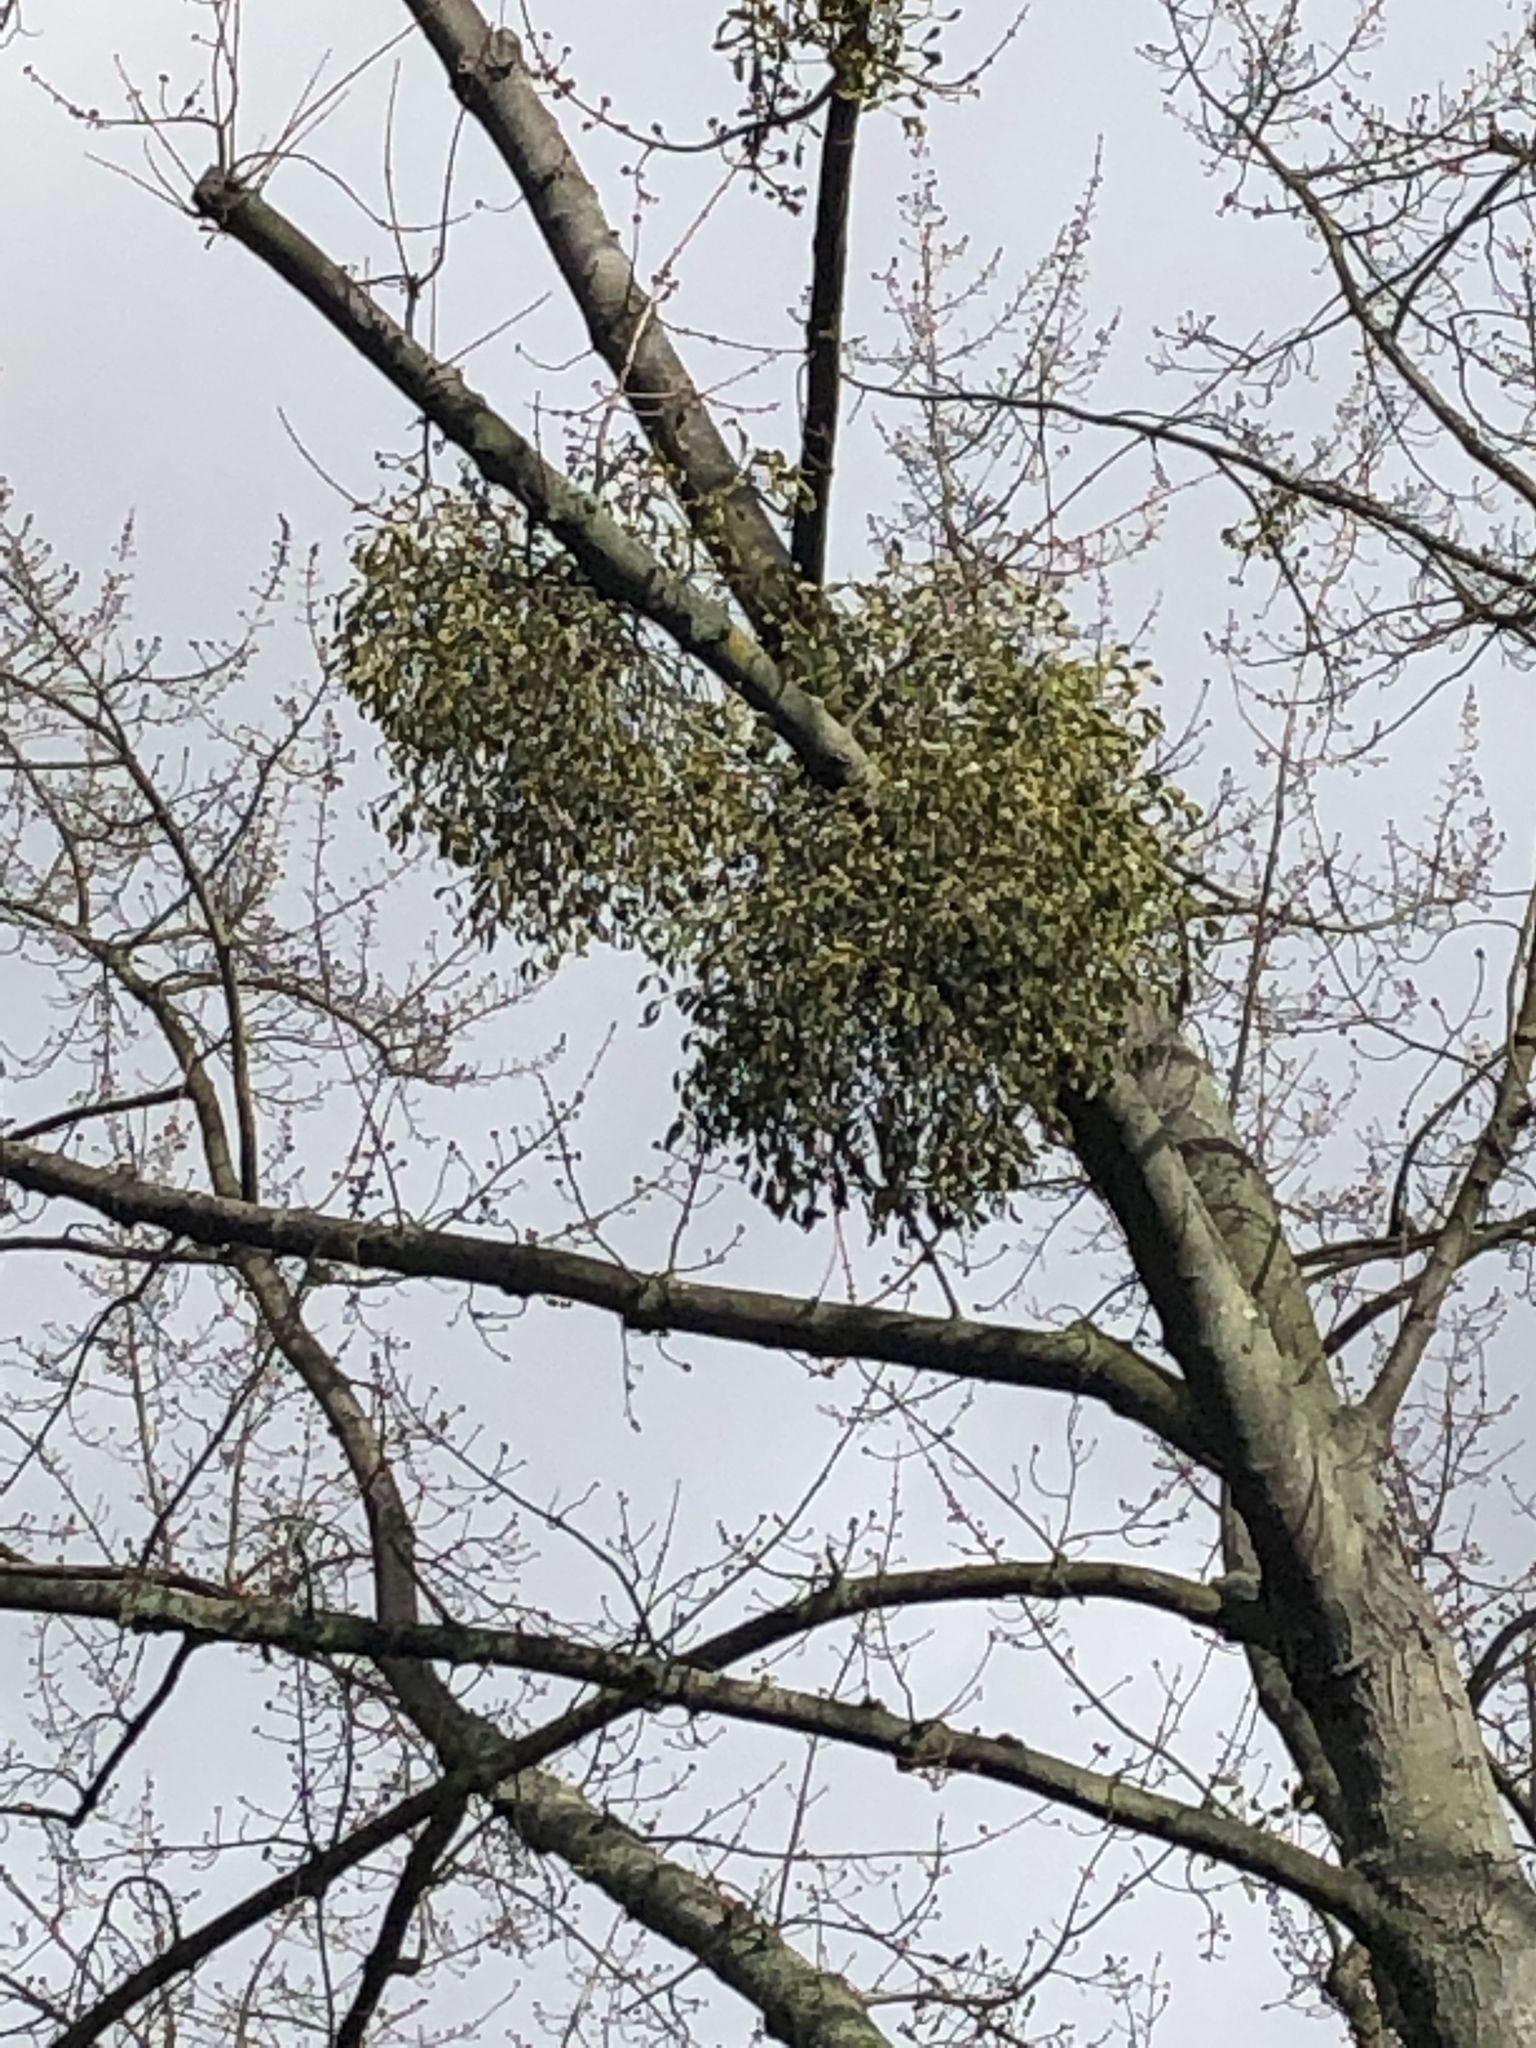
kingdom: Plantae
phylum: Tracheophyta
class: Magnoliopsida
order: Santalales
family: Viscaceae
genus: Viscum
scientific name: Viscum album
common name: Mistletoe
